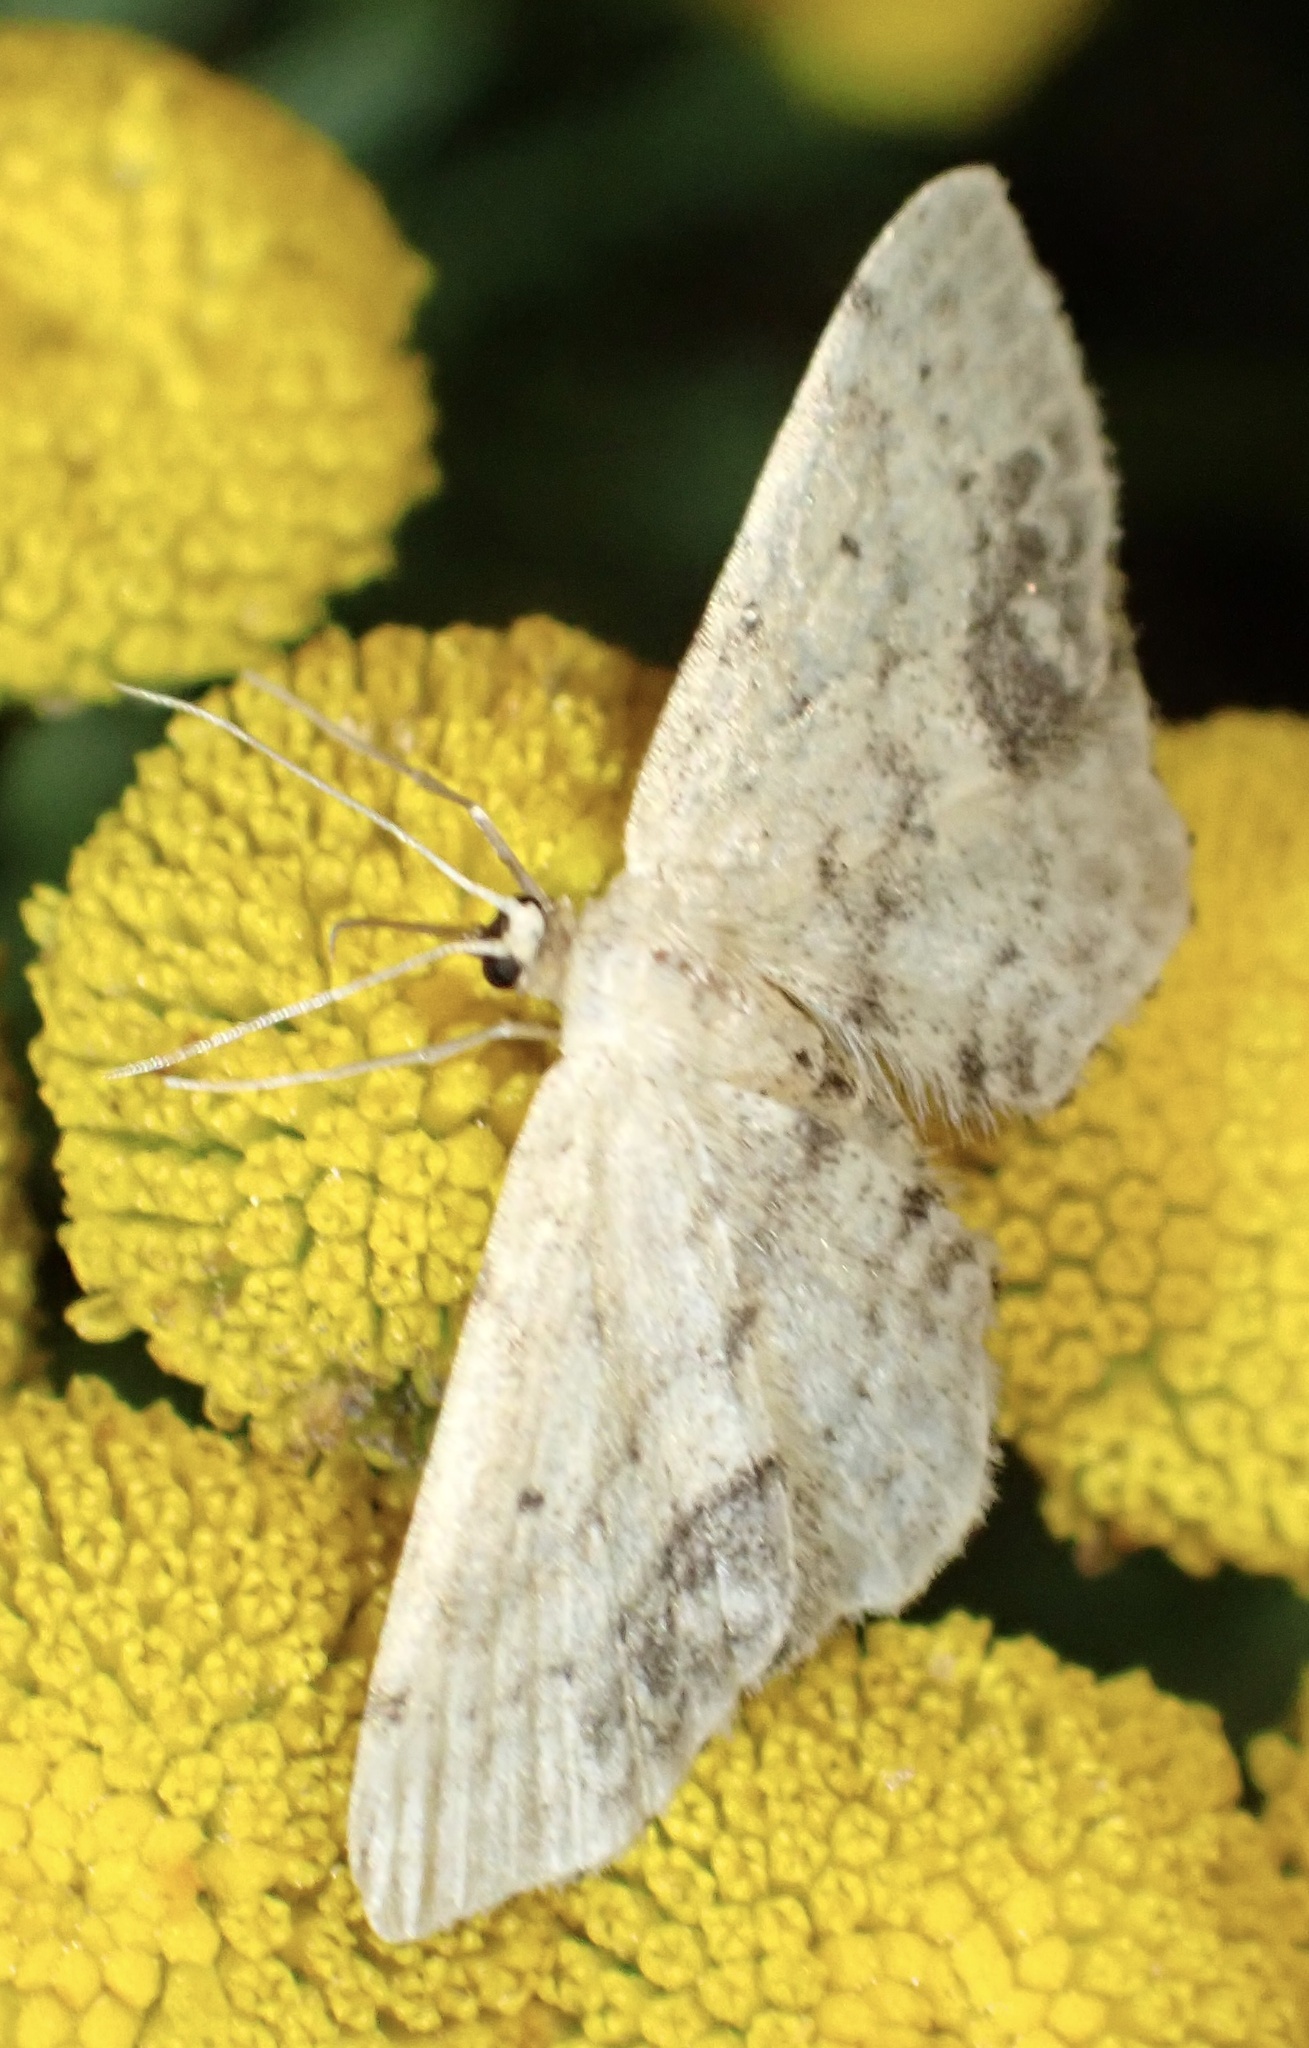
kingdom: Animalia
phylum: Arthropoda
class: Insecta
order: Lepidoptera
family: Geometridae
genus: Idaea
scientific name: Idaea dimidiata
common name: Single-dotted wave
